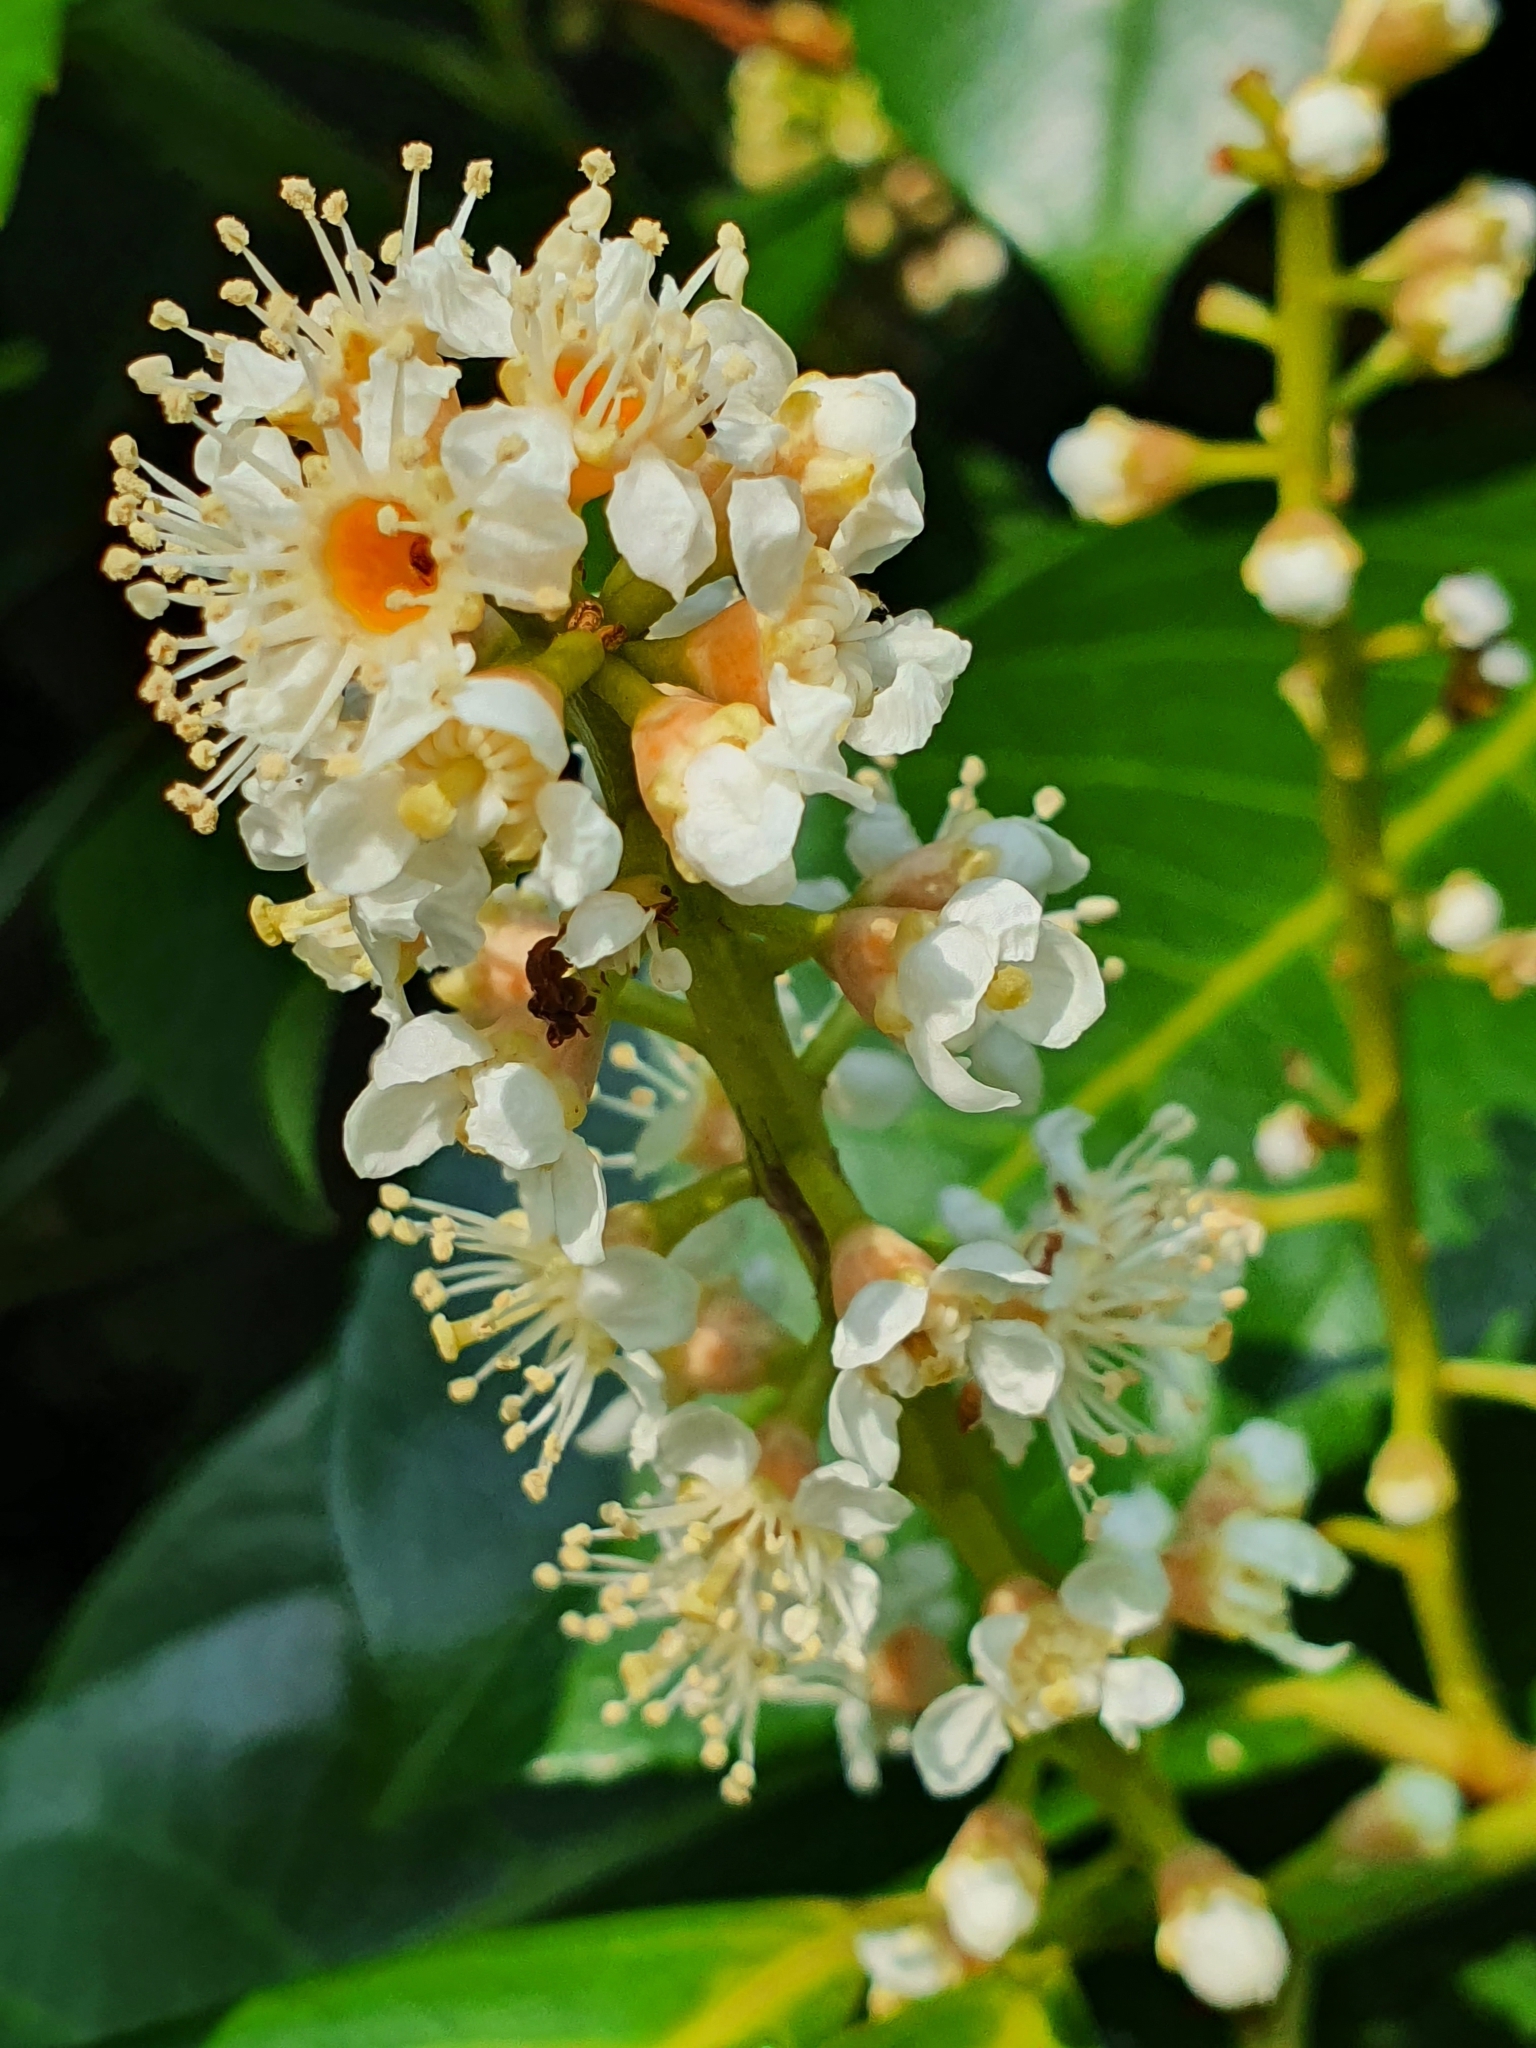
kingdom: Plantae
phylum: Tracheophyta
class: Magnoliopsida
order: Rosales
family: Rosaceae
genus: Prunus
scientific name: Prunus laurocerasus
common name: Cherry laurel
